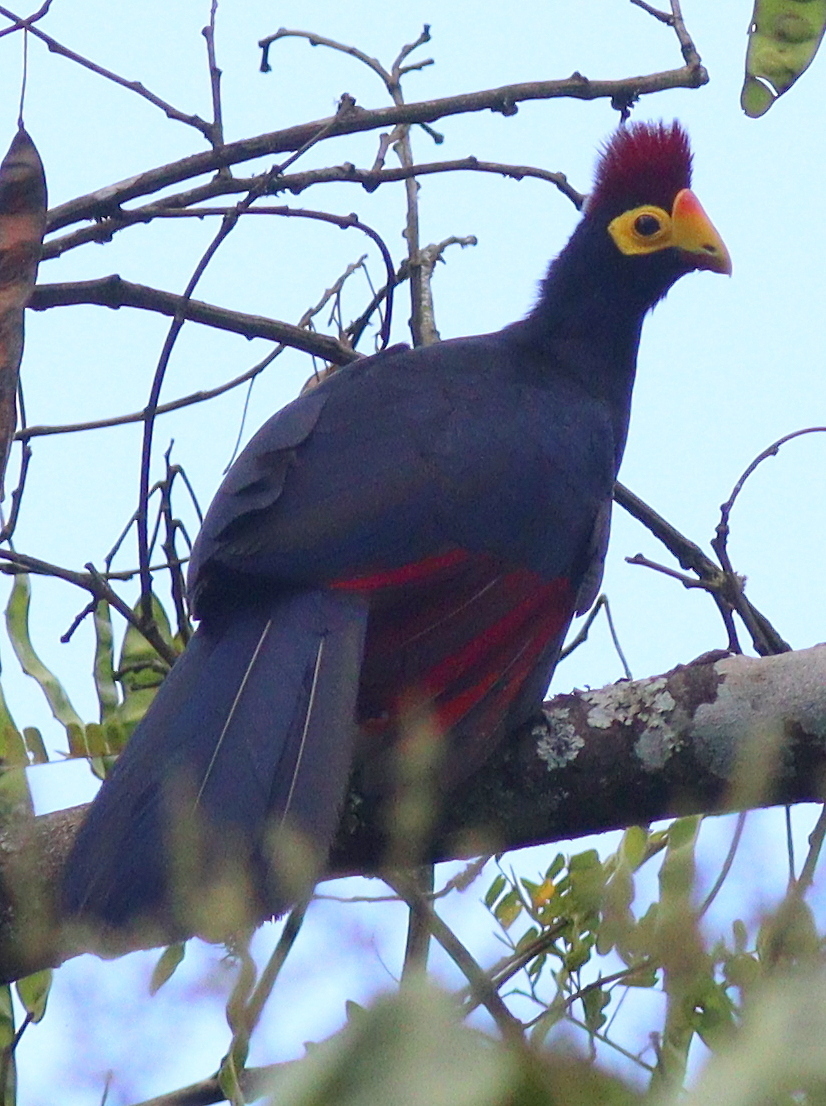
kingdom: Animalia
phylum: Chordata
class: Aves
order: Musophagiformes
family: Musophagidae
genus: Musophaga
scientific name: Musophaga rossae
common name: Ross's turaco
